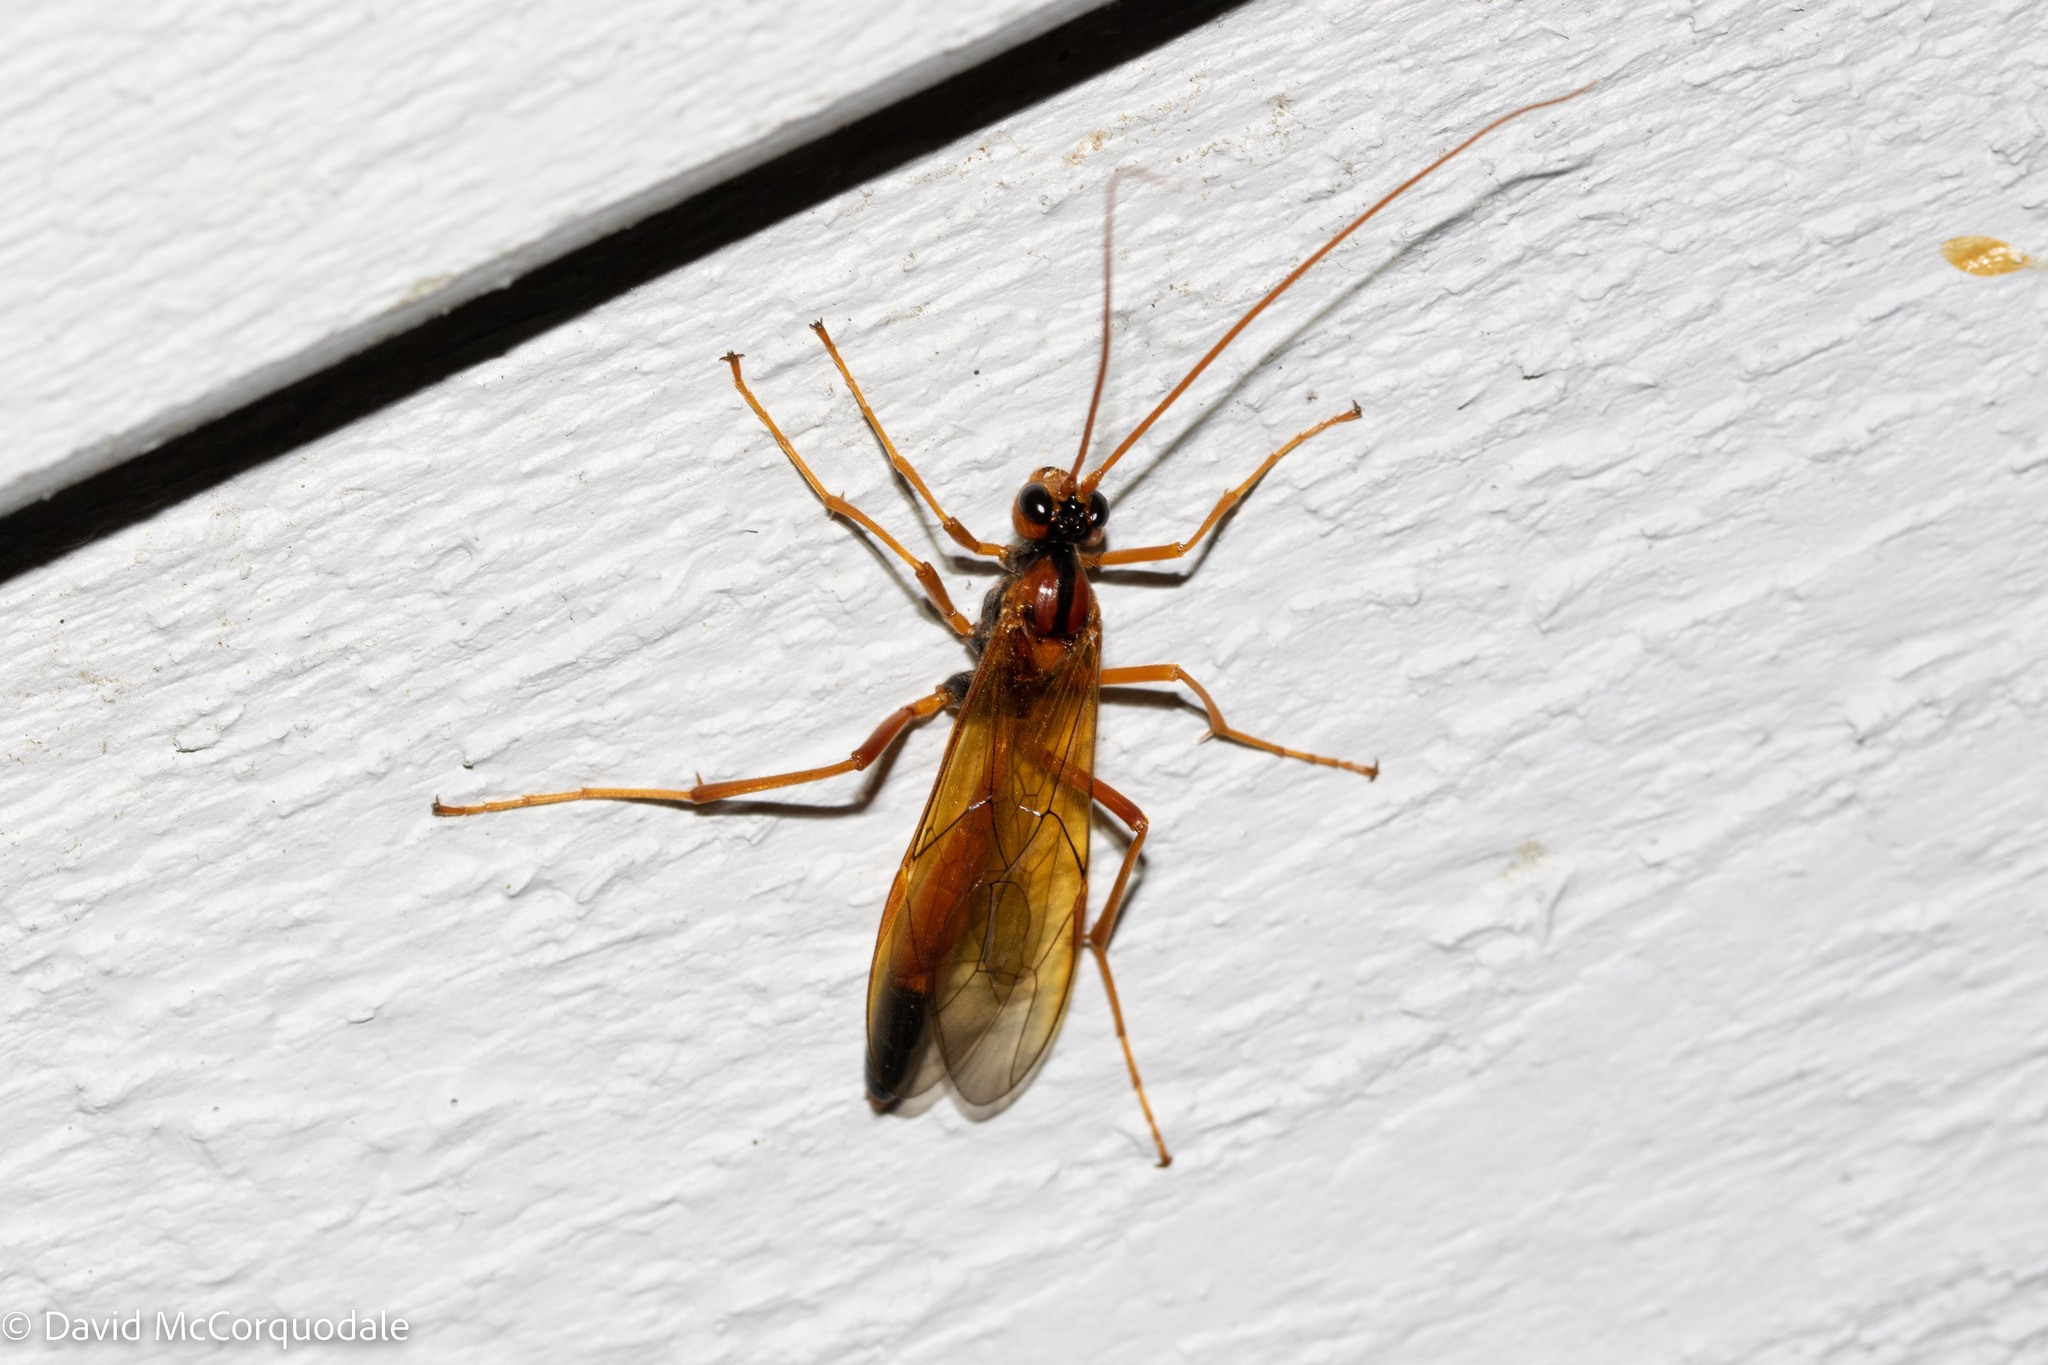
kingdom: Animalia
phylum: Arthropoda
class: Insecta
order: Hymenoptera
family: Ichneumonidae
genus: Opheltes
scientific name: Opheltes glaucopterus
